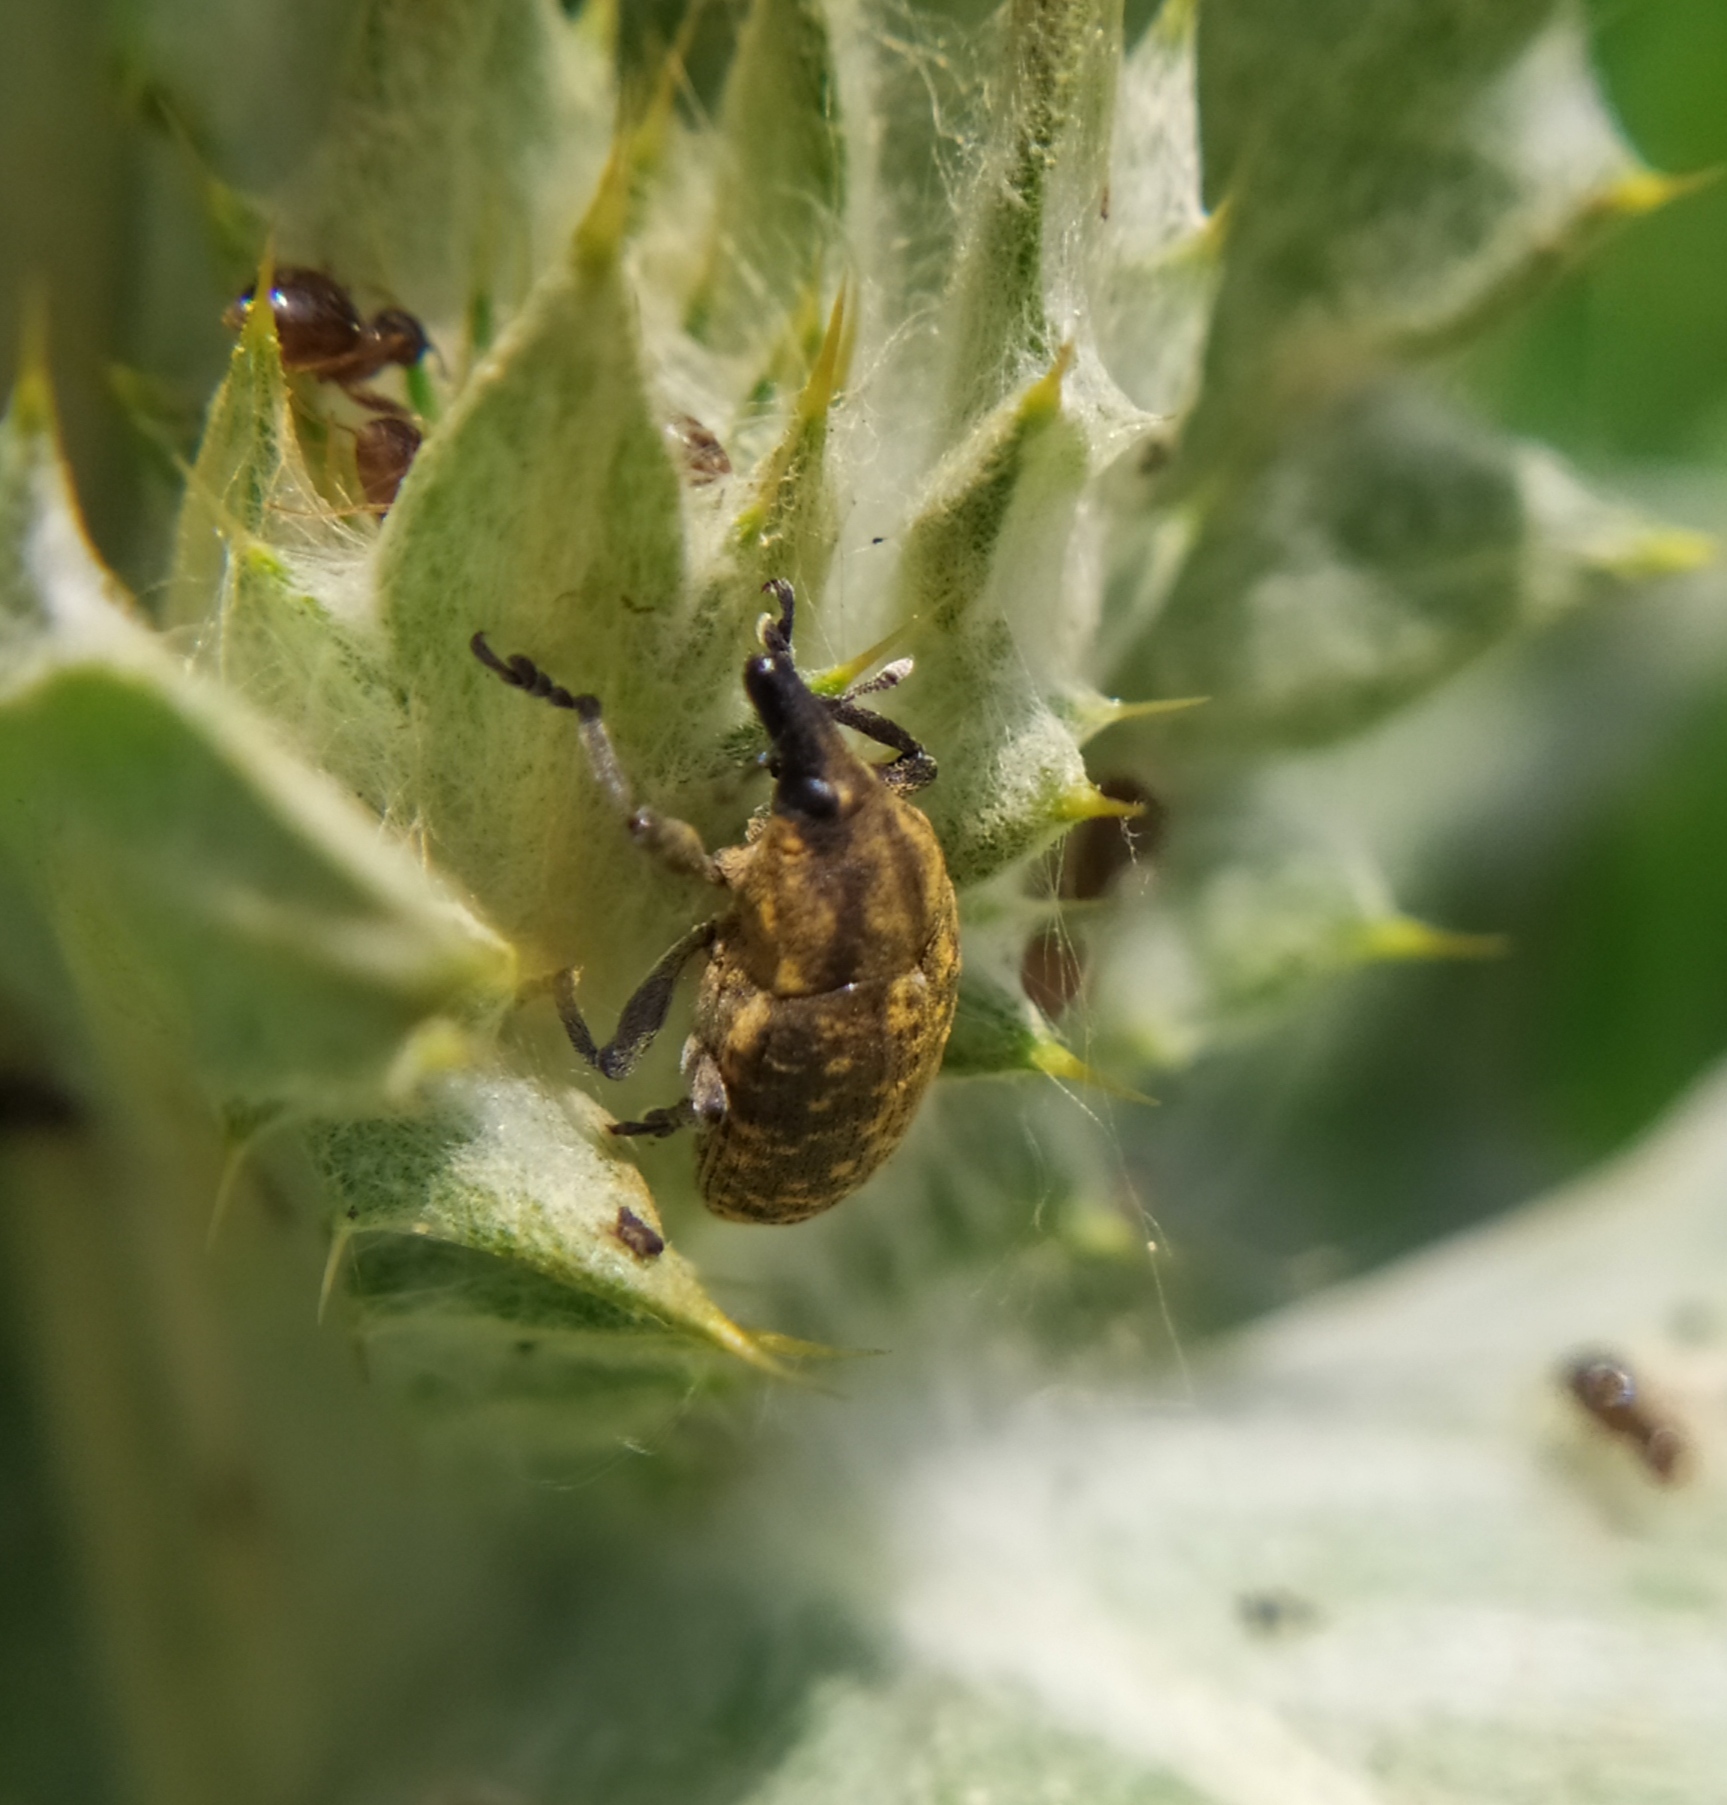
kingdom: Animalia
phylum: Arthropoda
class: Insecta
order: Coleoptera
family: Curculionidae
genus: Larinus
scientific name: Larinus turbinatus
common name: Weevil
